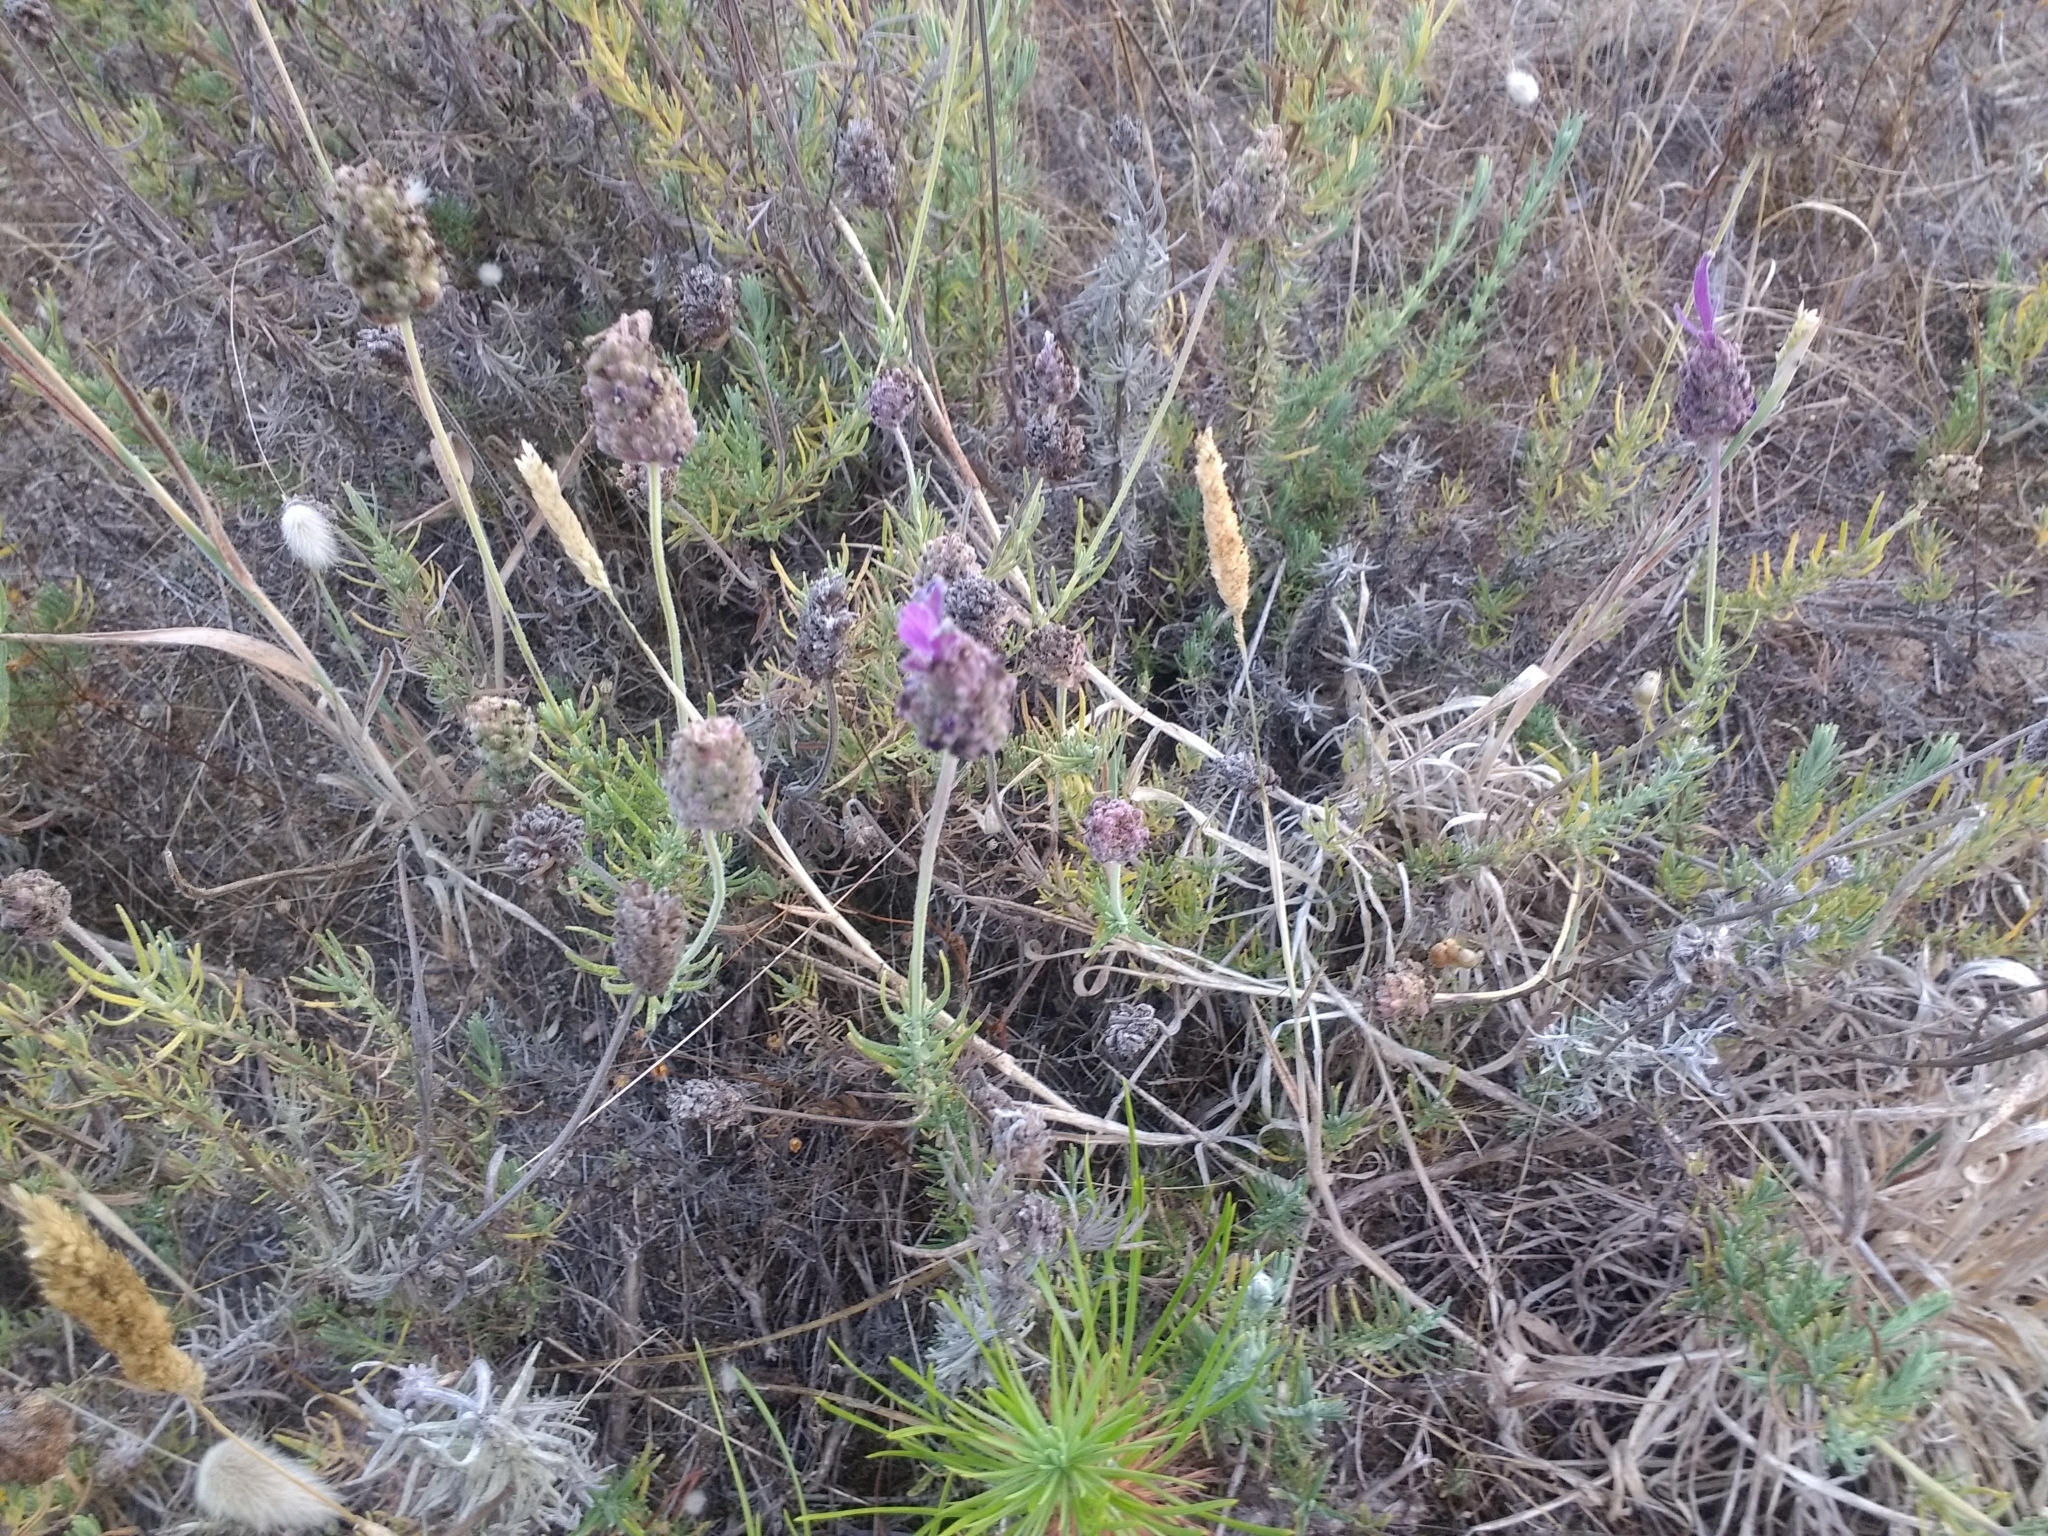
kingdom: Plantae
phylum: Tracheophyta
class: Magnoliopsida
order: Lamiales
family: Lamiaceae
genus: Lavandula
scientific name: Lavandula pedunculata
